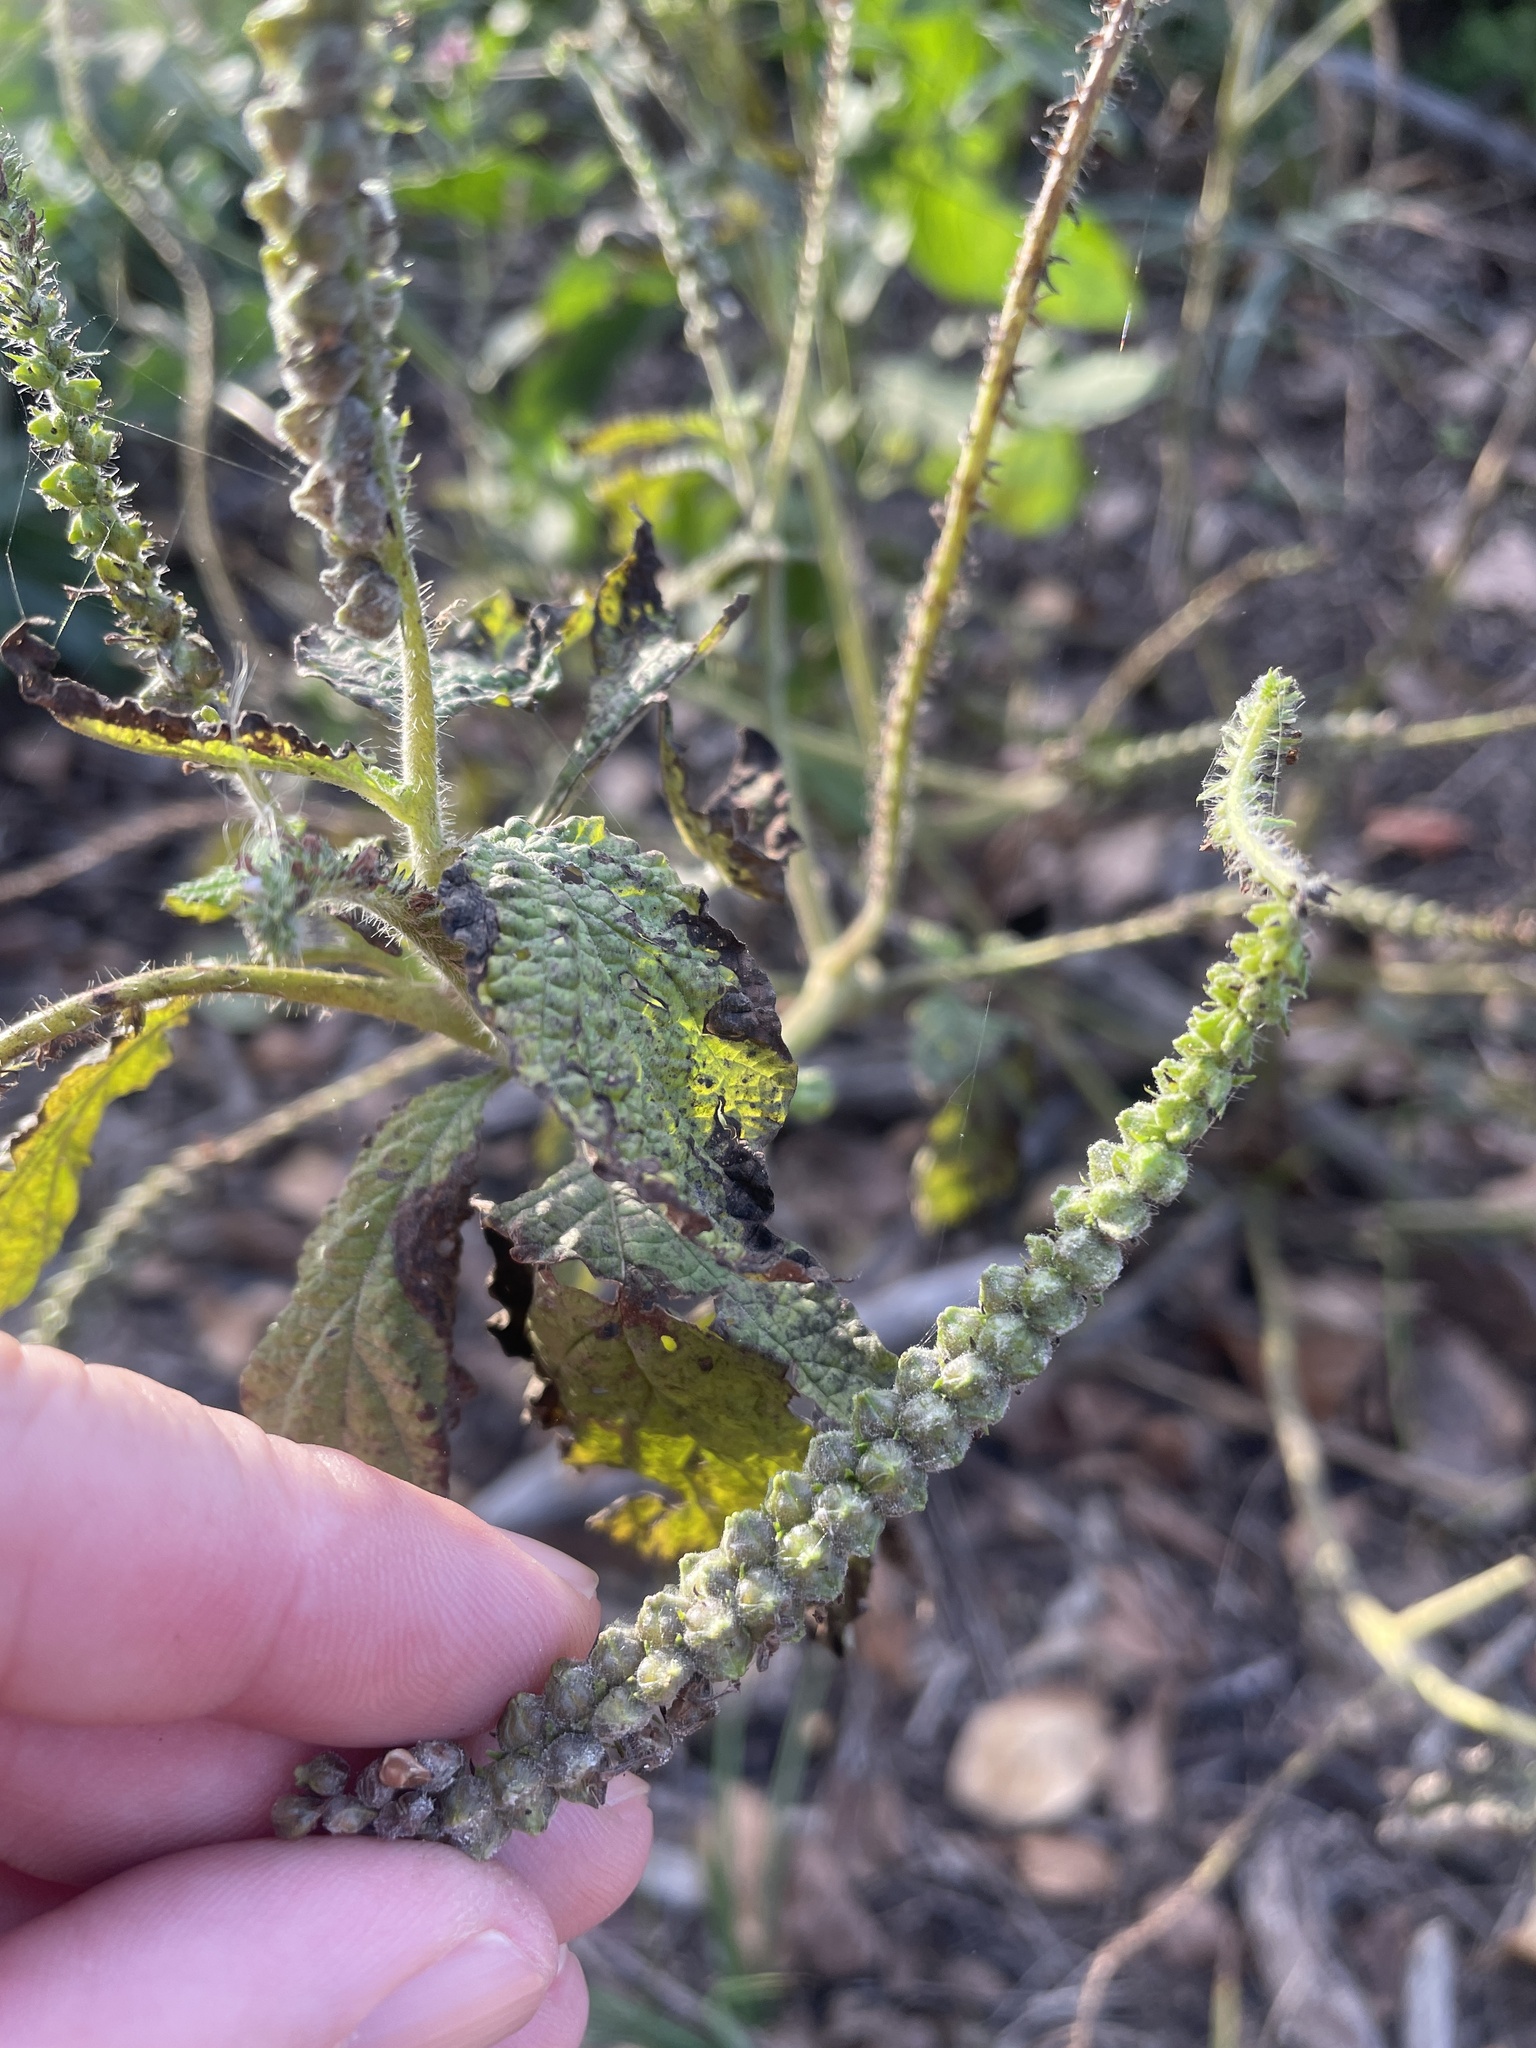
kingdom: Plantae
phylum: Tracheophyta
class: Magnoliopsida
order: Boraginales
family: Heliotropiaceae
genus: Heliotropium
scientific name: Heliotropium indicum
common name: Indian heliotrope
